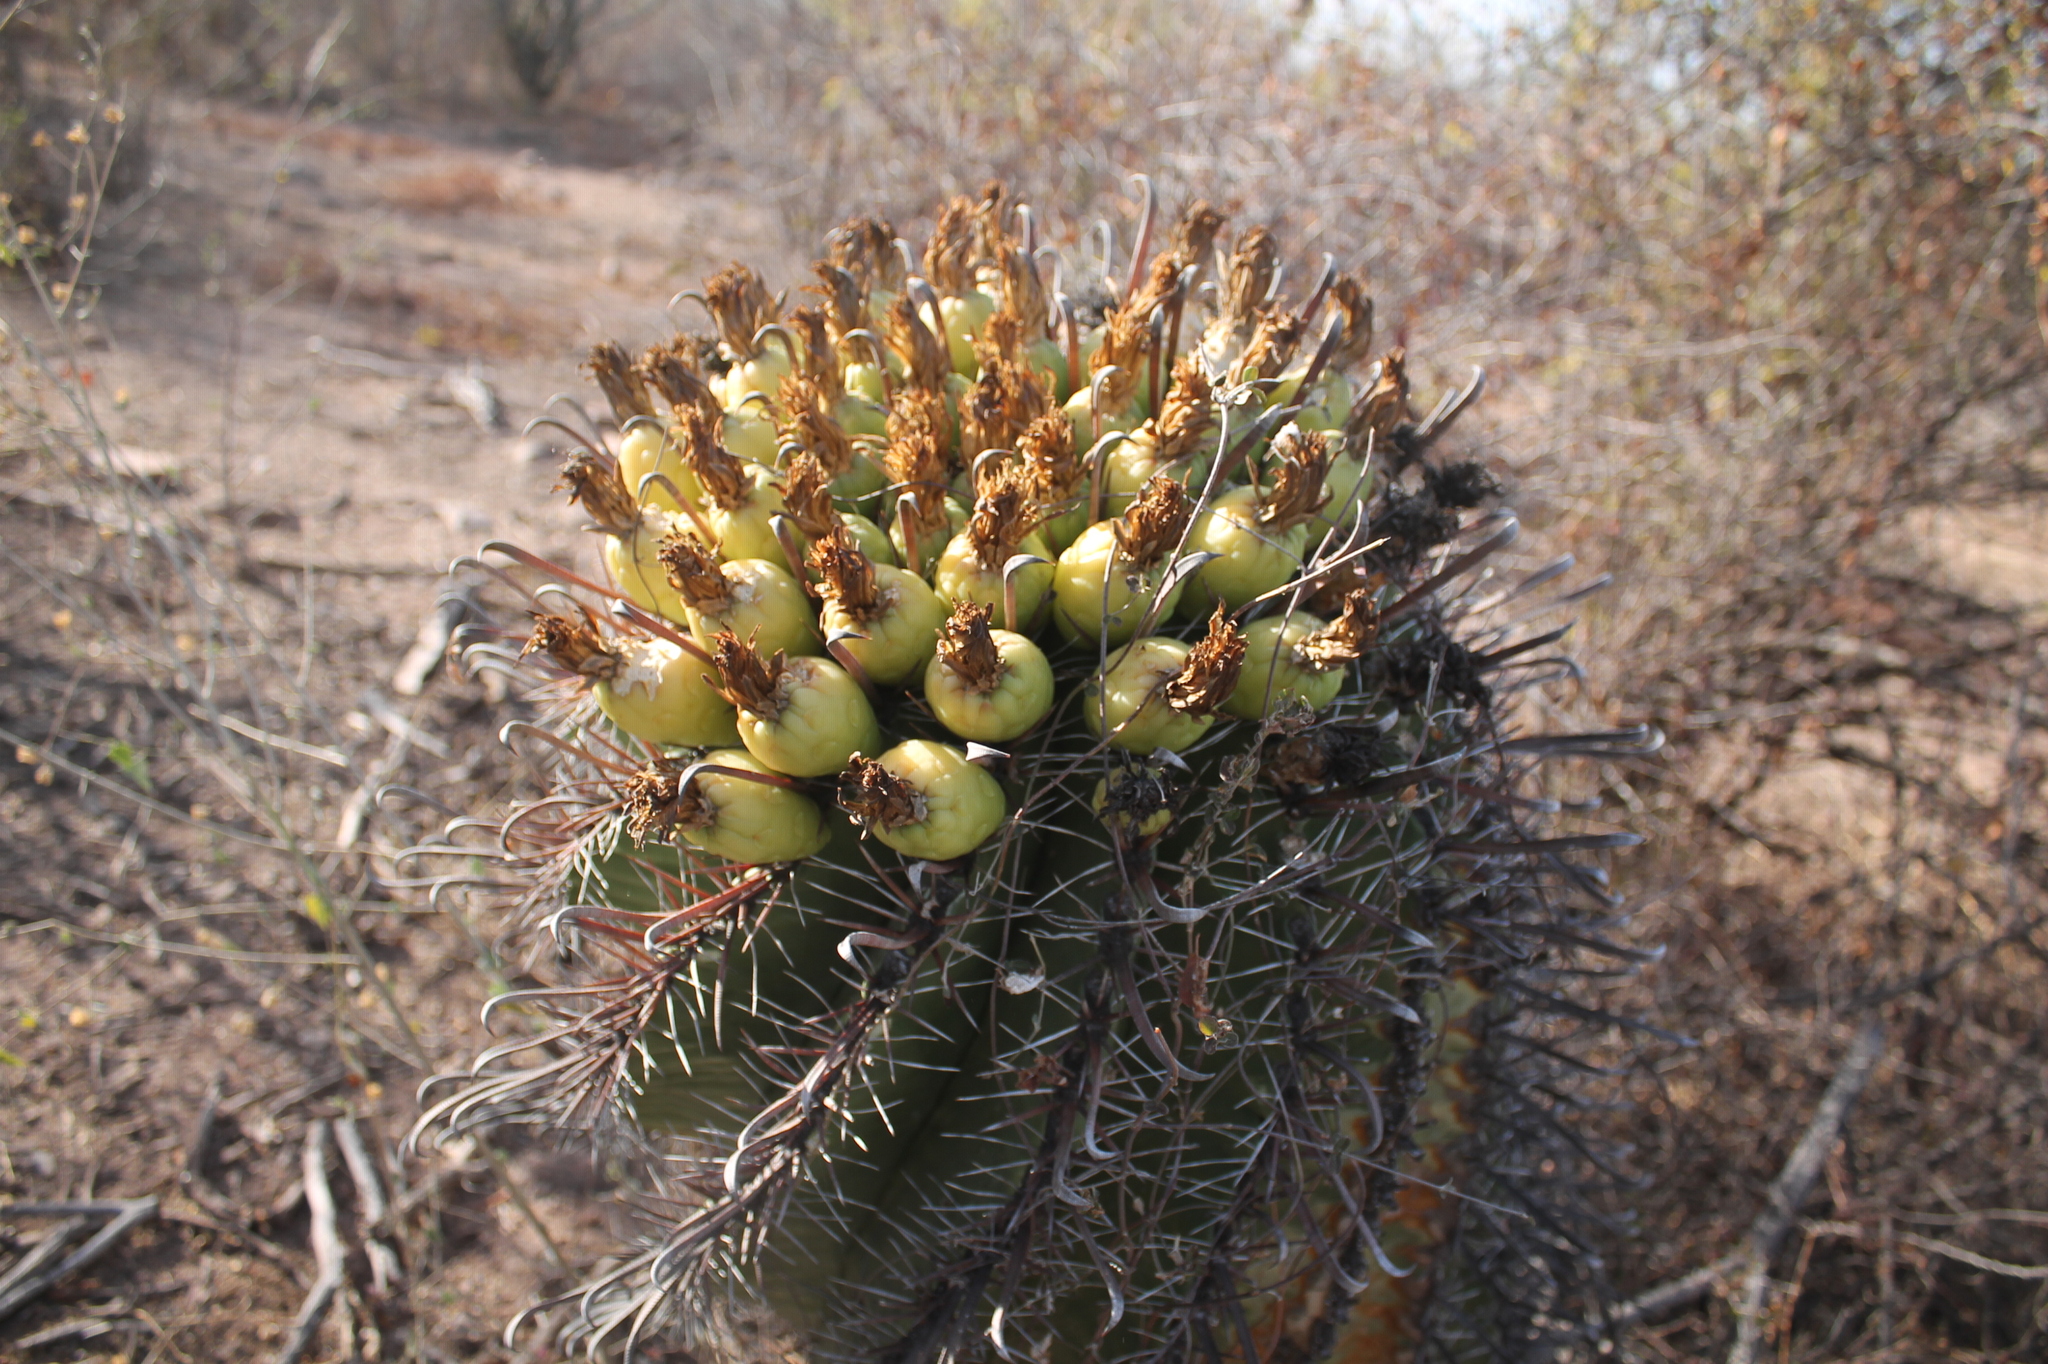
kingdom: Plantae
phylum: Tracheophyta
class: Magnoliopsida
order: Caryophyllales
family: Cactaceae
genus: Ferocactus
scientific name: Ferocactus wislizeni
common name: Candy barrel cactus
